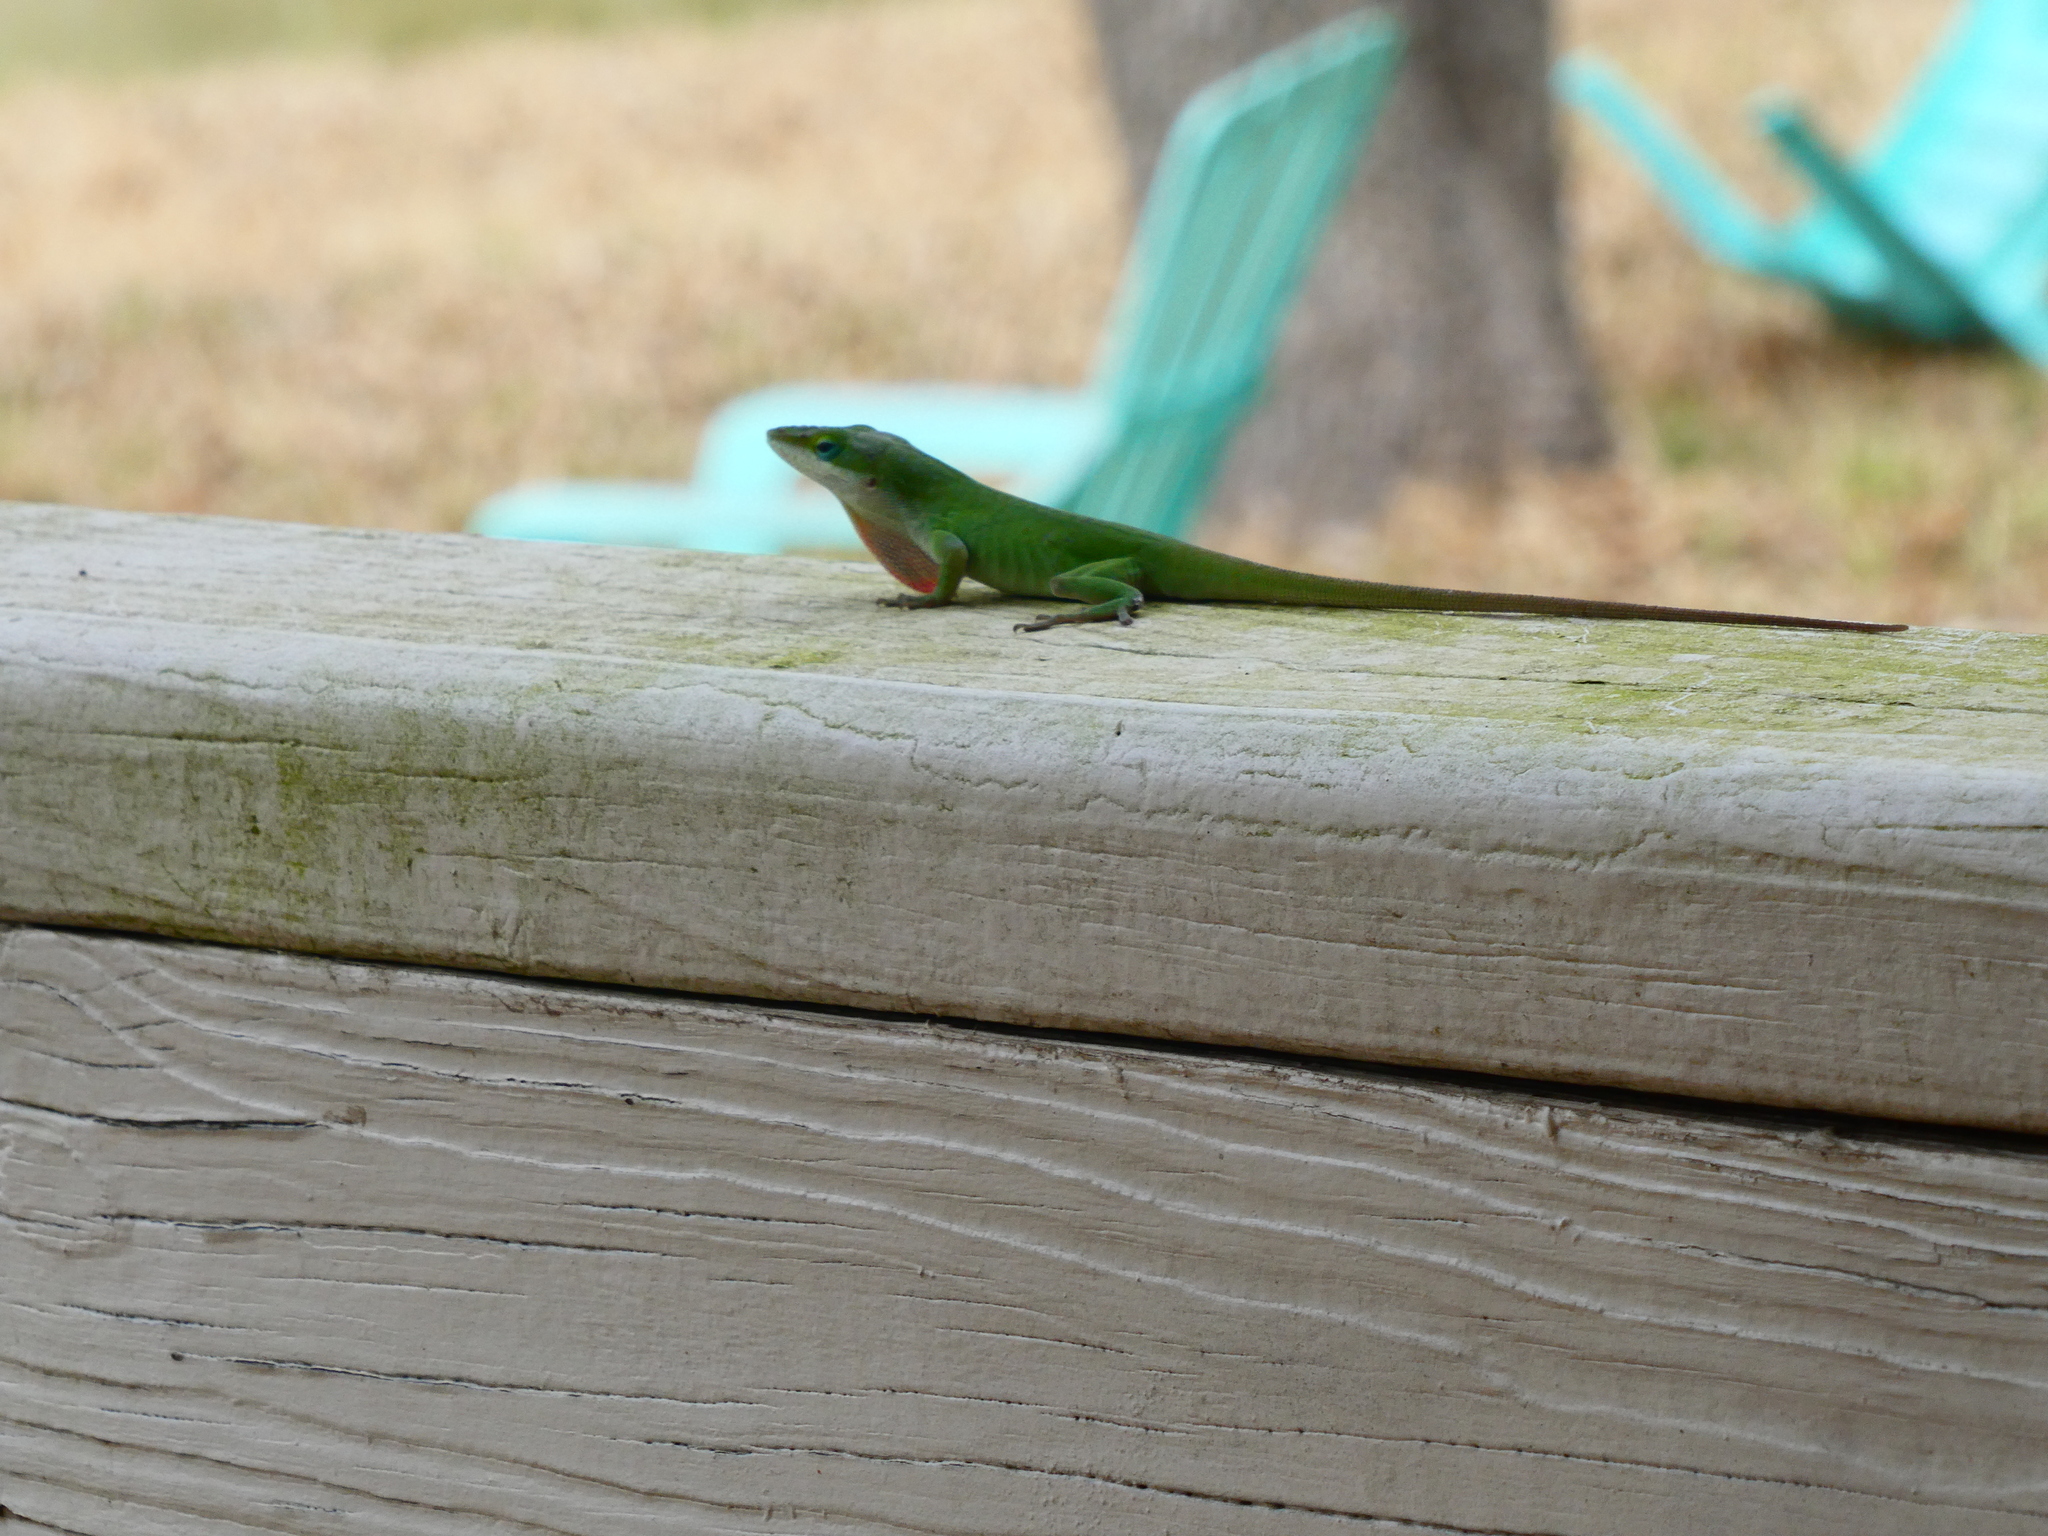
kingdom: Animalia
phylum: Chordata
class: Squamata
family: Dactyloidae
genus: Anolis
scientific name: Anolis carolinensis
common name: Green anole
